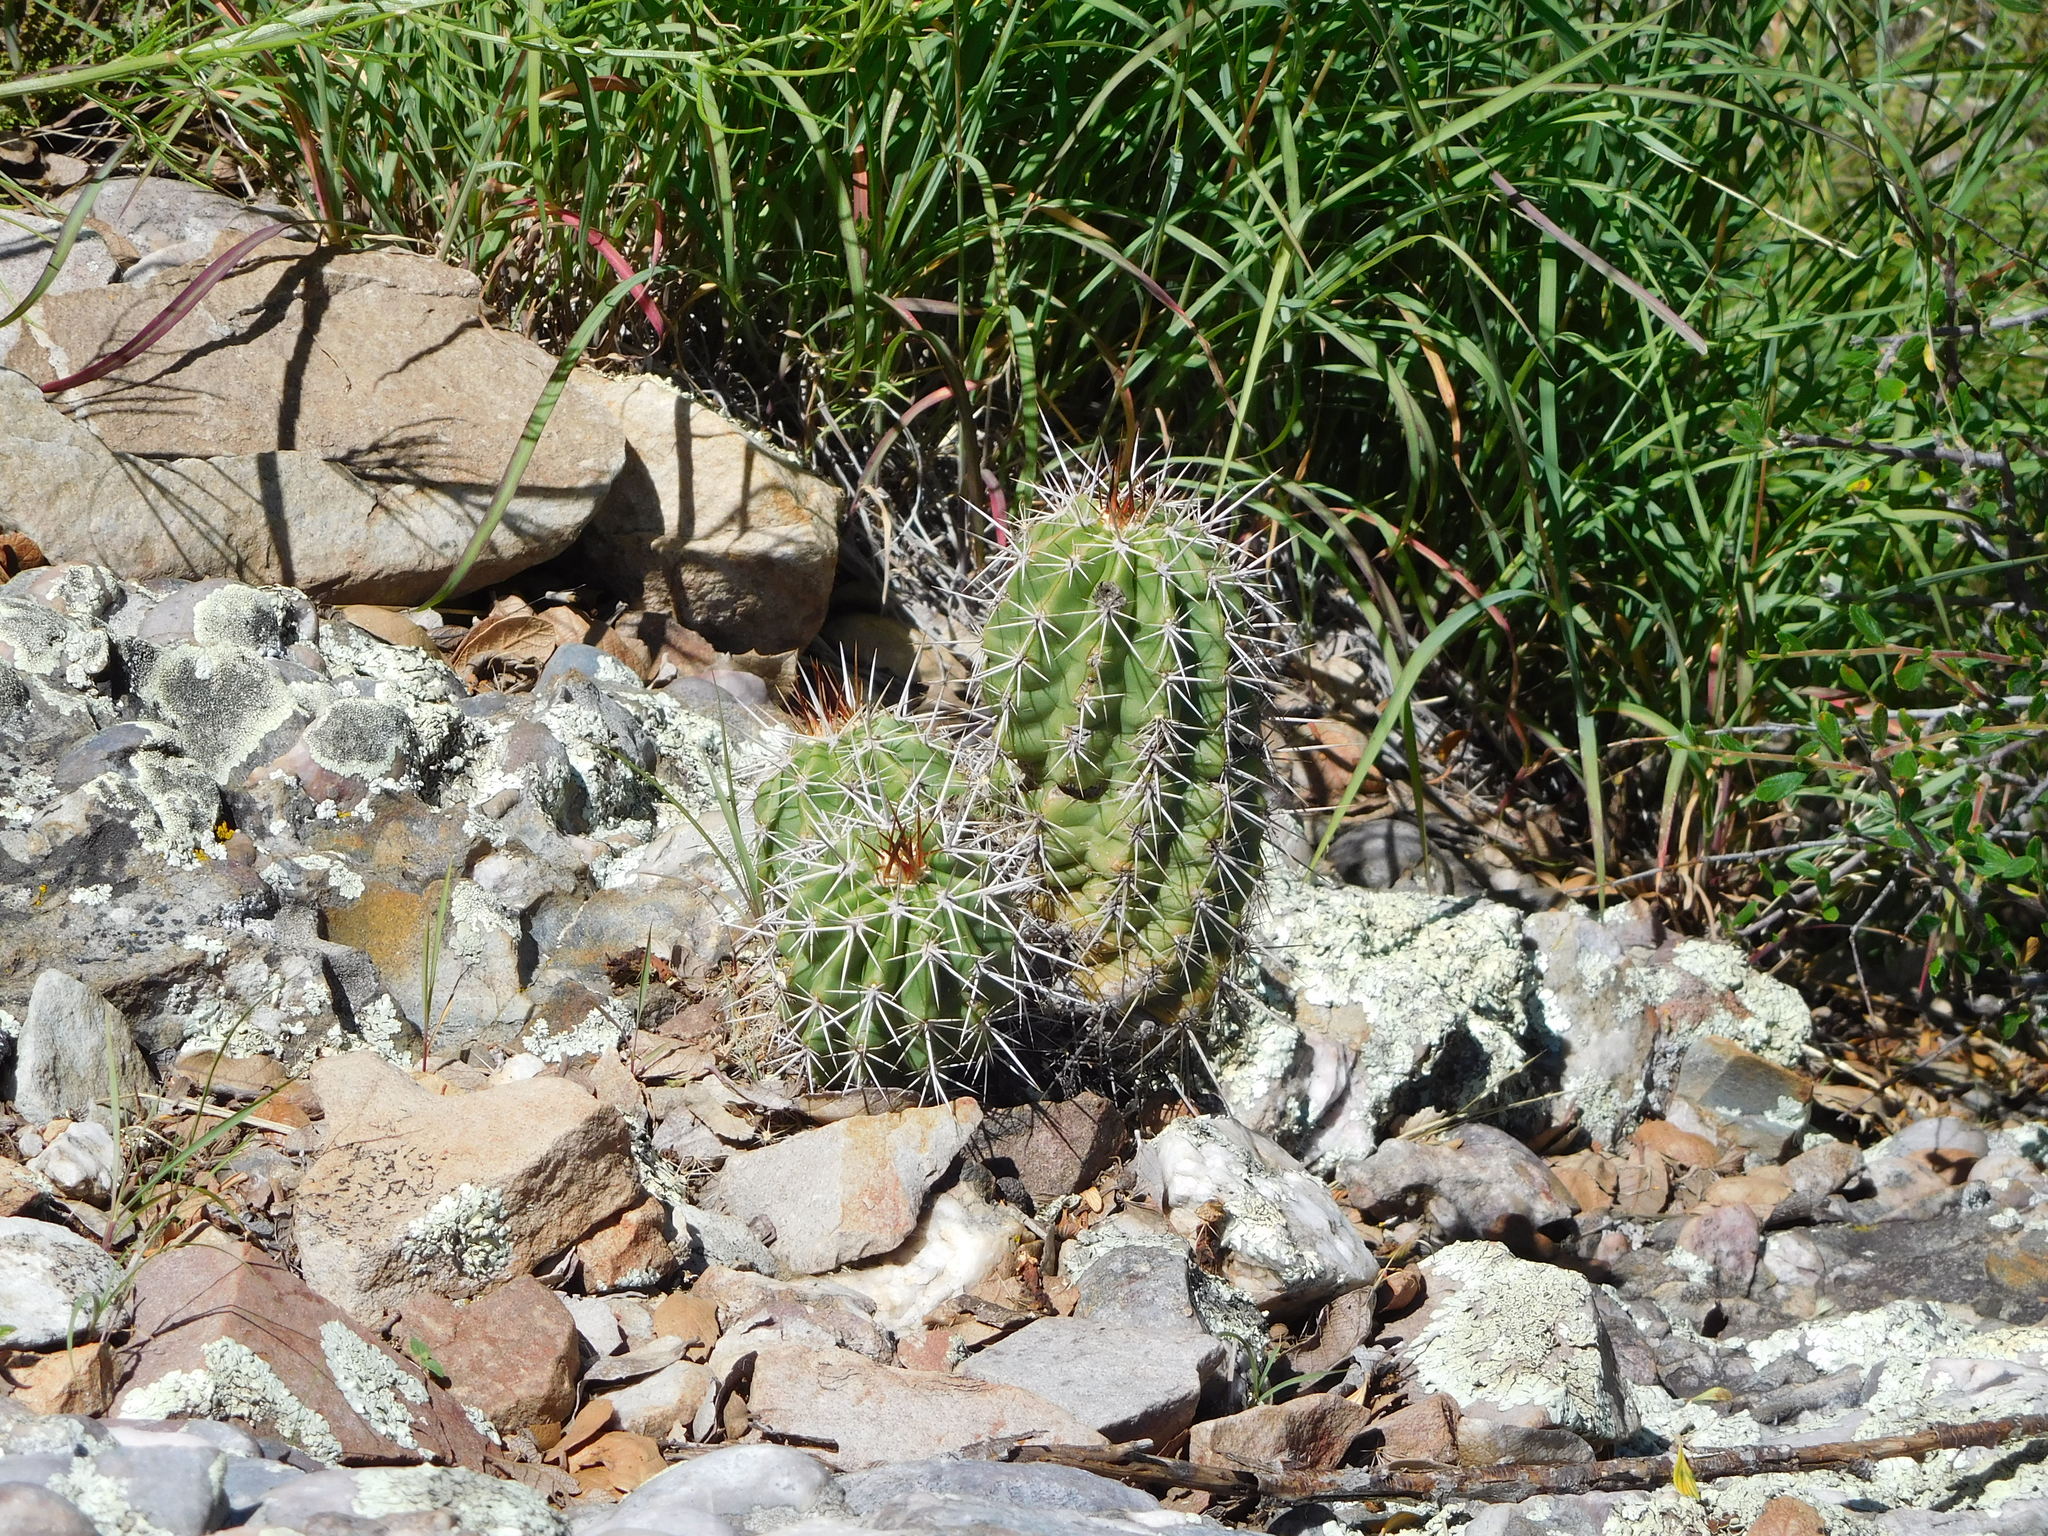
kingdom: Plantae
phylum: Tracheophyta
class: Magnoliopsida
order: Caryophyllales
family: Cactaceae
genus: Echinocereus
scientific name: Echinocereus coccineus
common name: Scarlet hedgehog cactus
